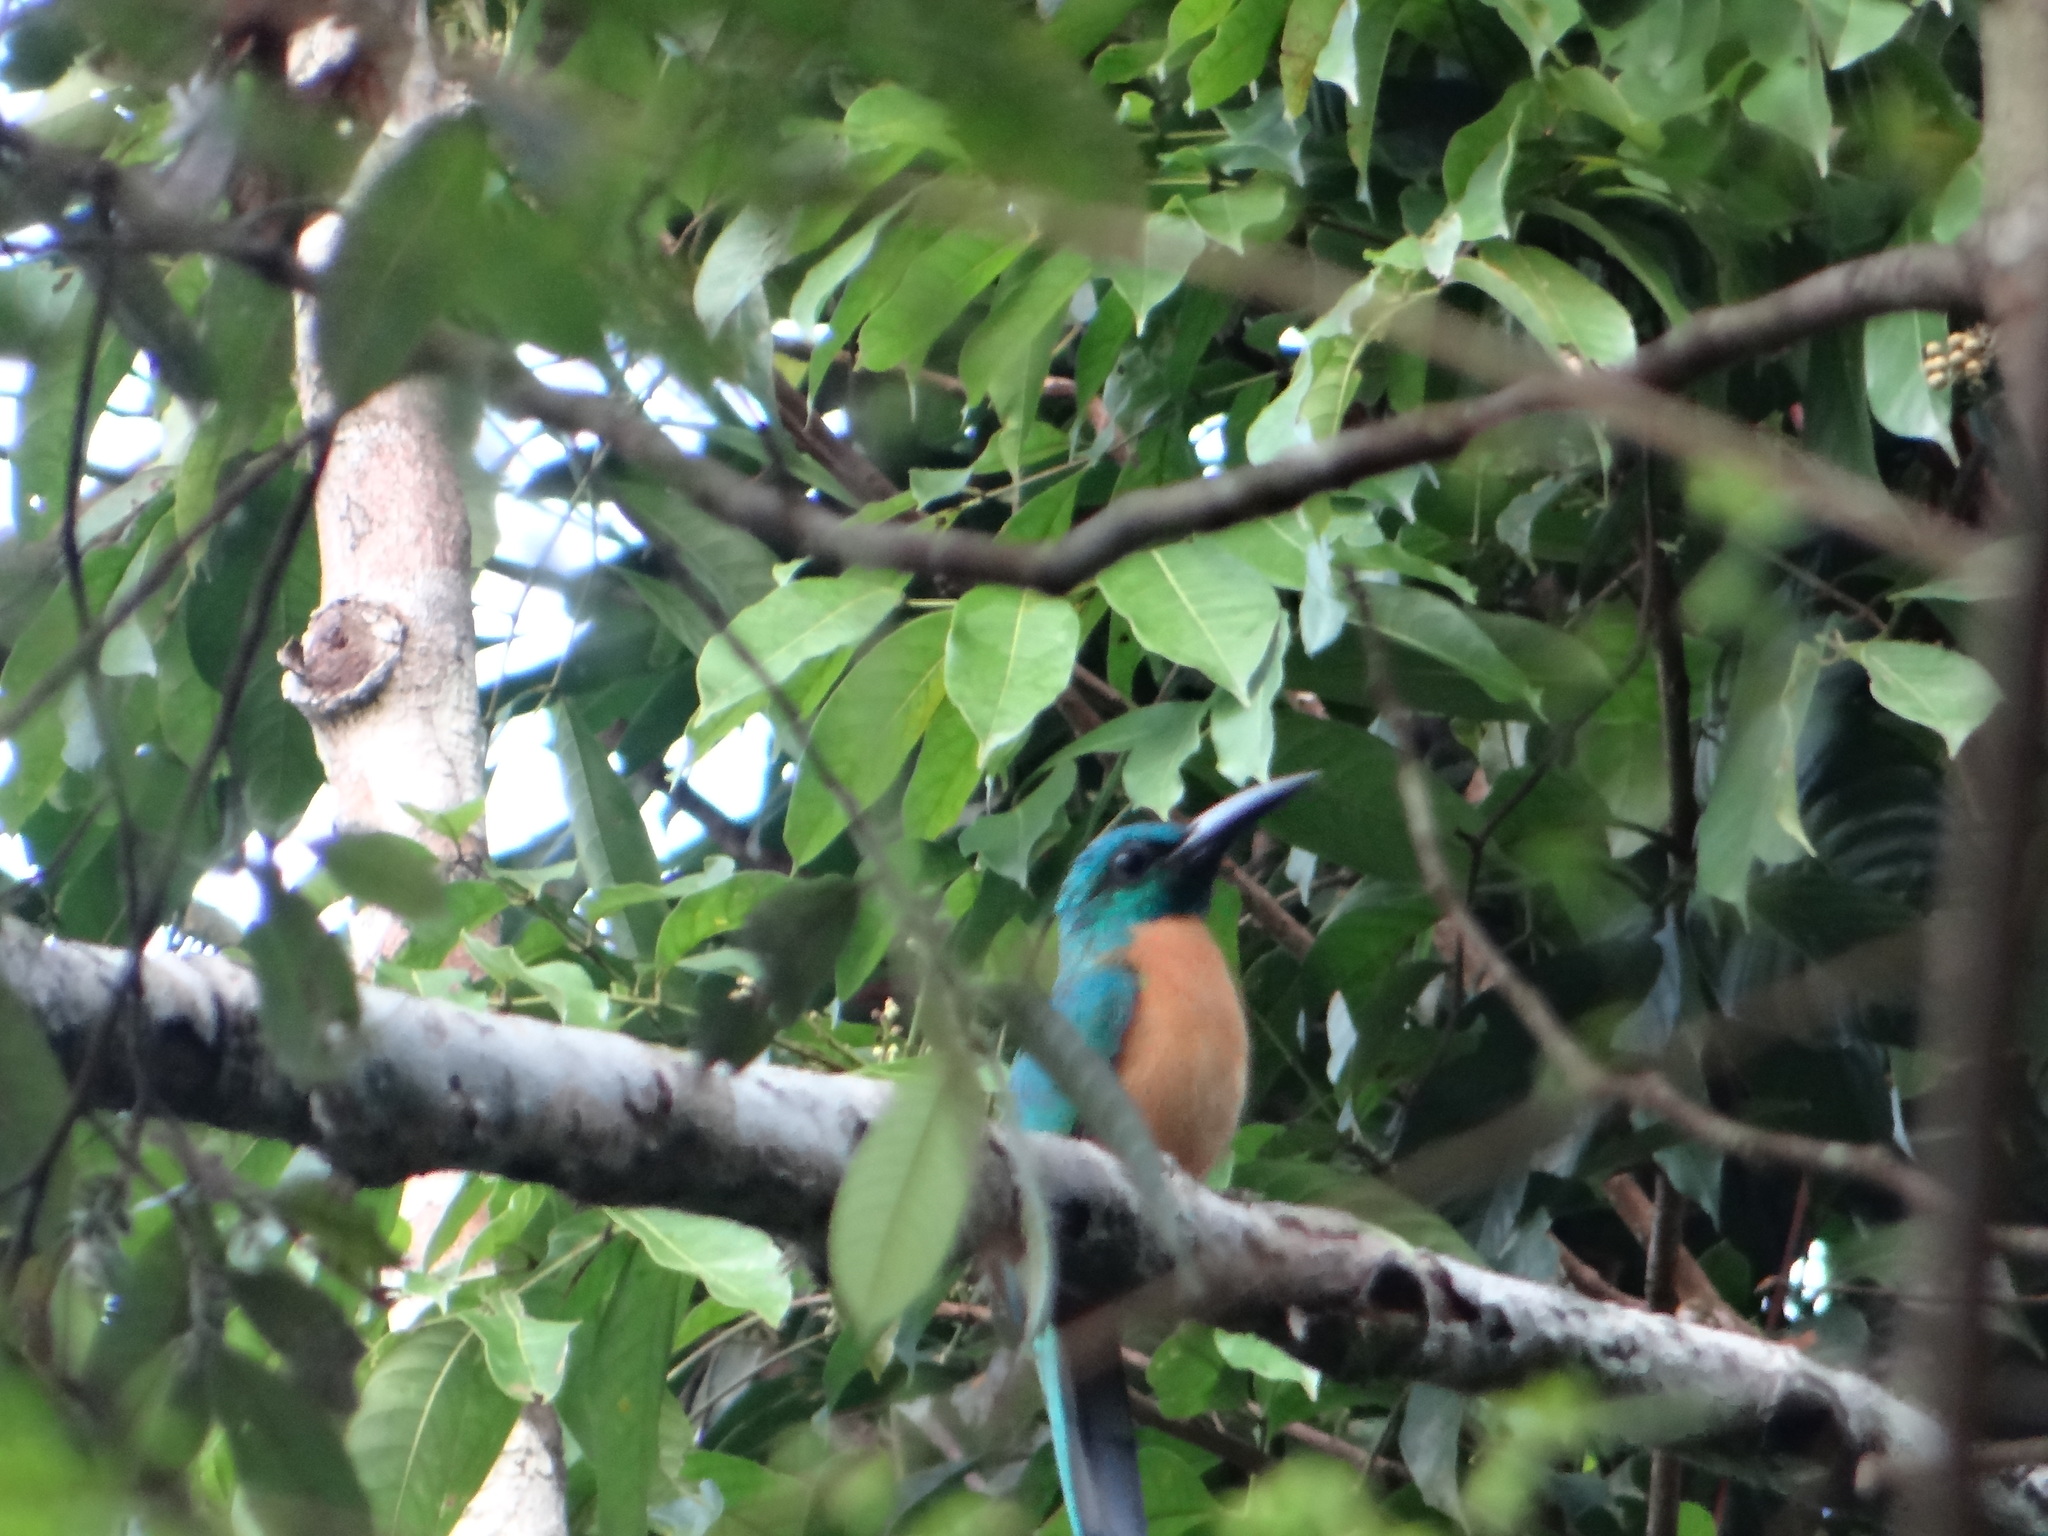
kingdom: Animalia
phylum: Chordata
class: Aves
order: Piciformes
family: Galbulidae
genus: Jacamerops
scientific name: Jacamerops aureus
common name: Great jacamar
